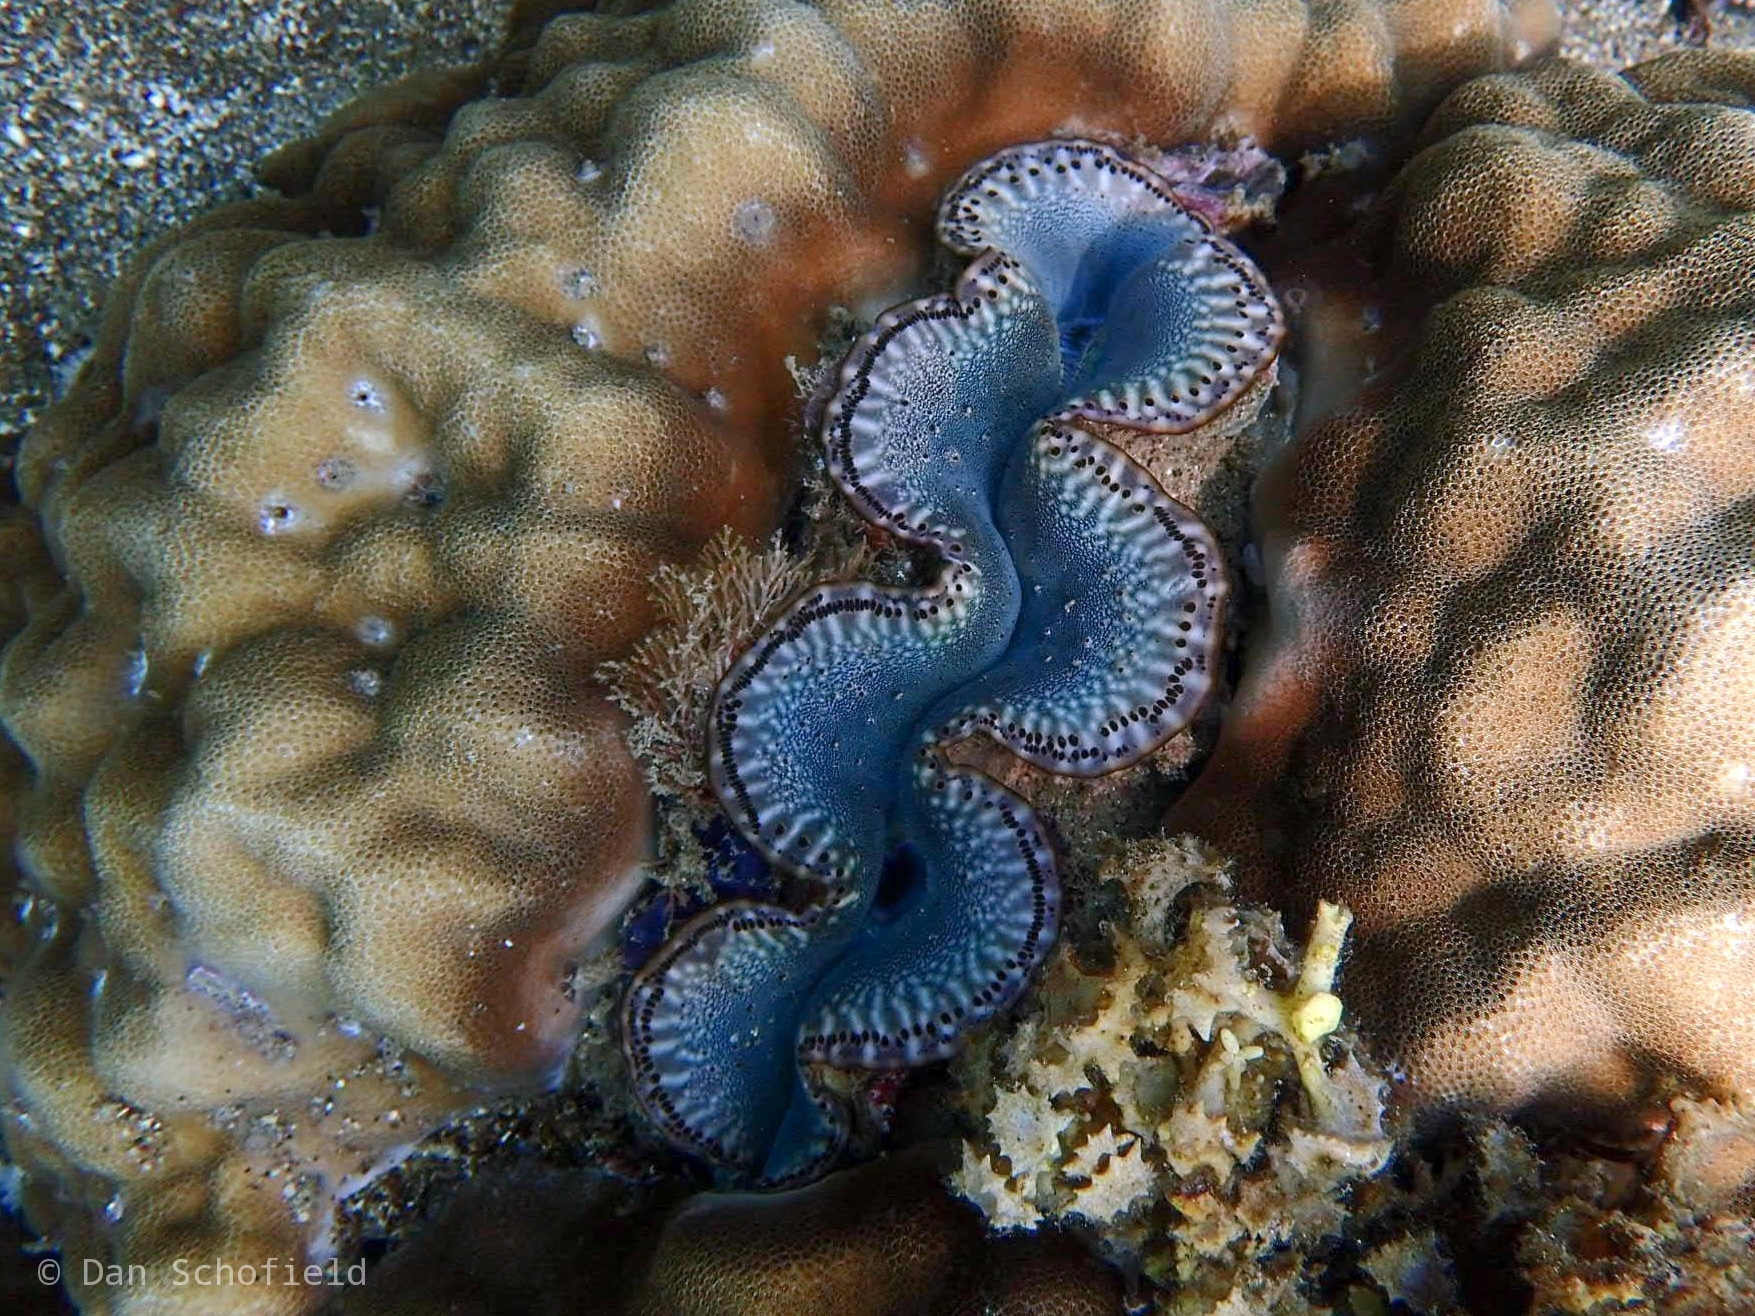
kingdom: Animalia
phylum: Mollusca
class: Bivalvia
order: Cardiida
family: Cardiidae
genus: Tridacna
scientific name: Tridacna maxima
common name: Small giant clam
